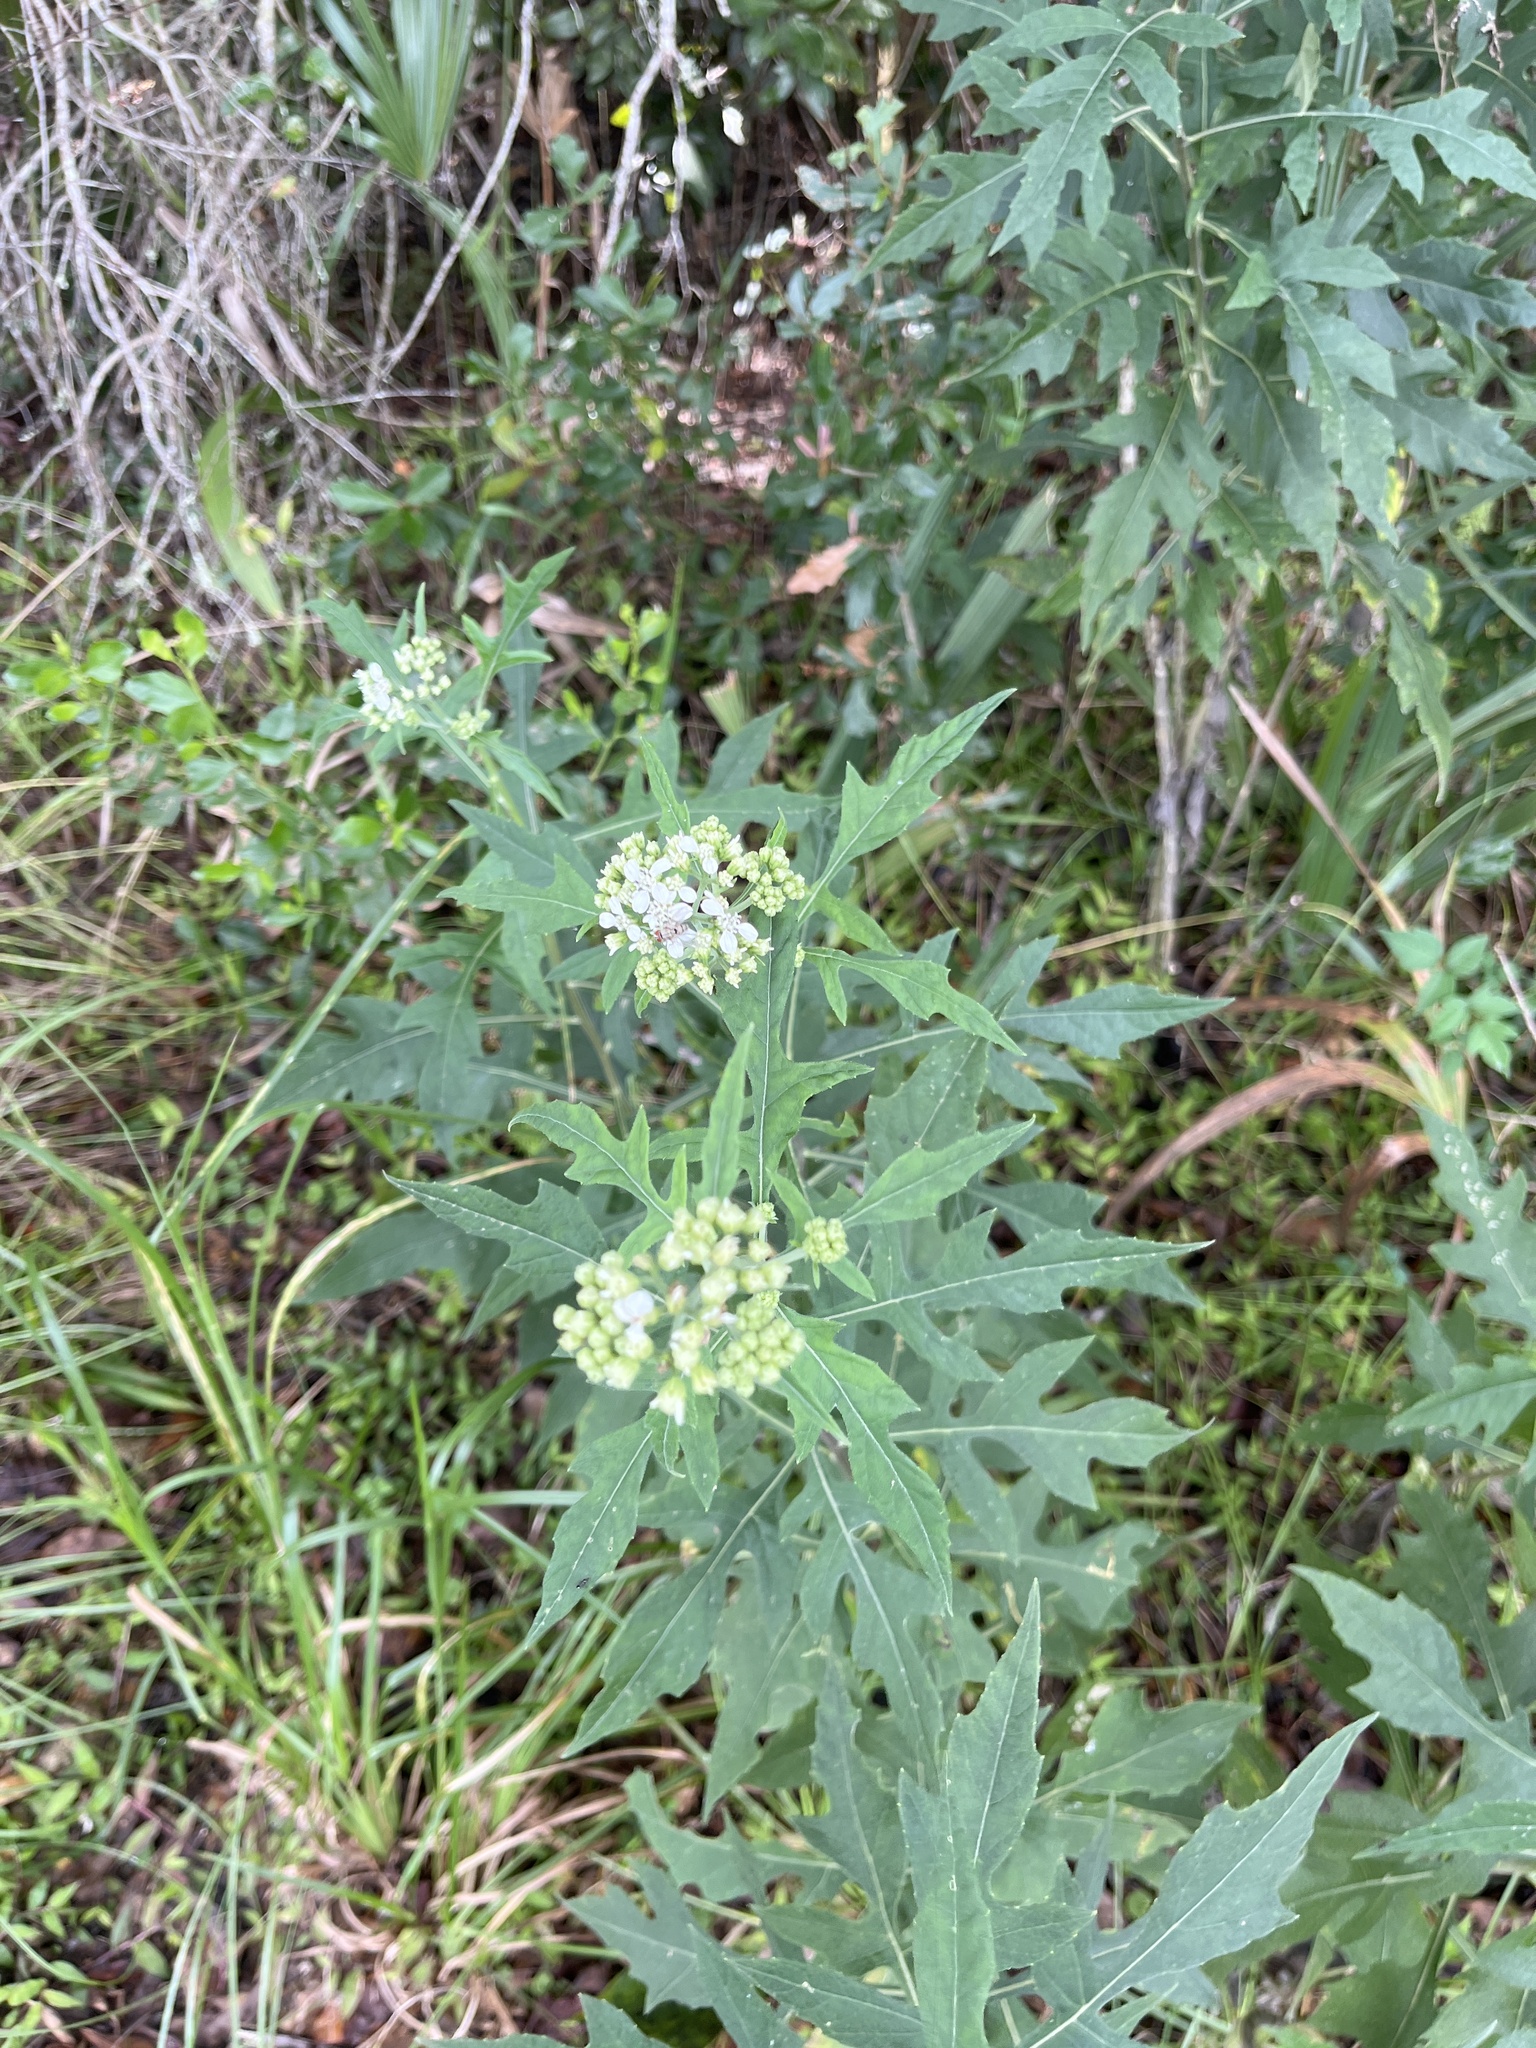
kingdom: Plantae
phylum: Tracheophyta
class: Magnoliopsida
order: Asterales
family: Asteraceae
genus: Verbesina
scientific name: Verbesina virginica
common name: Frostweed
